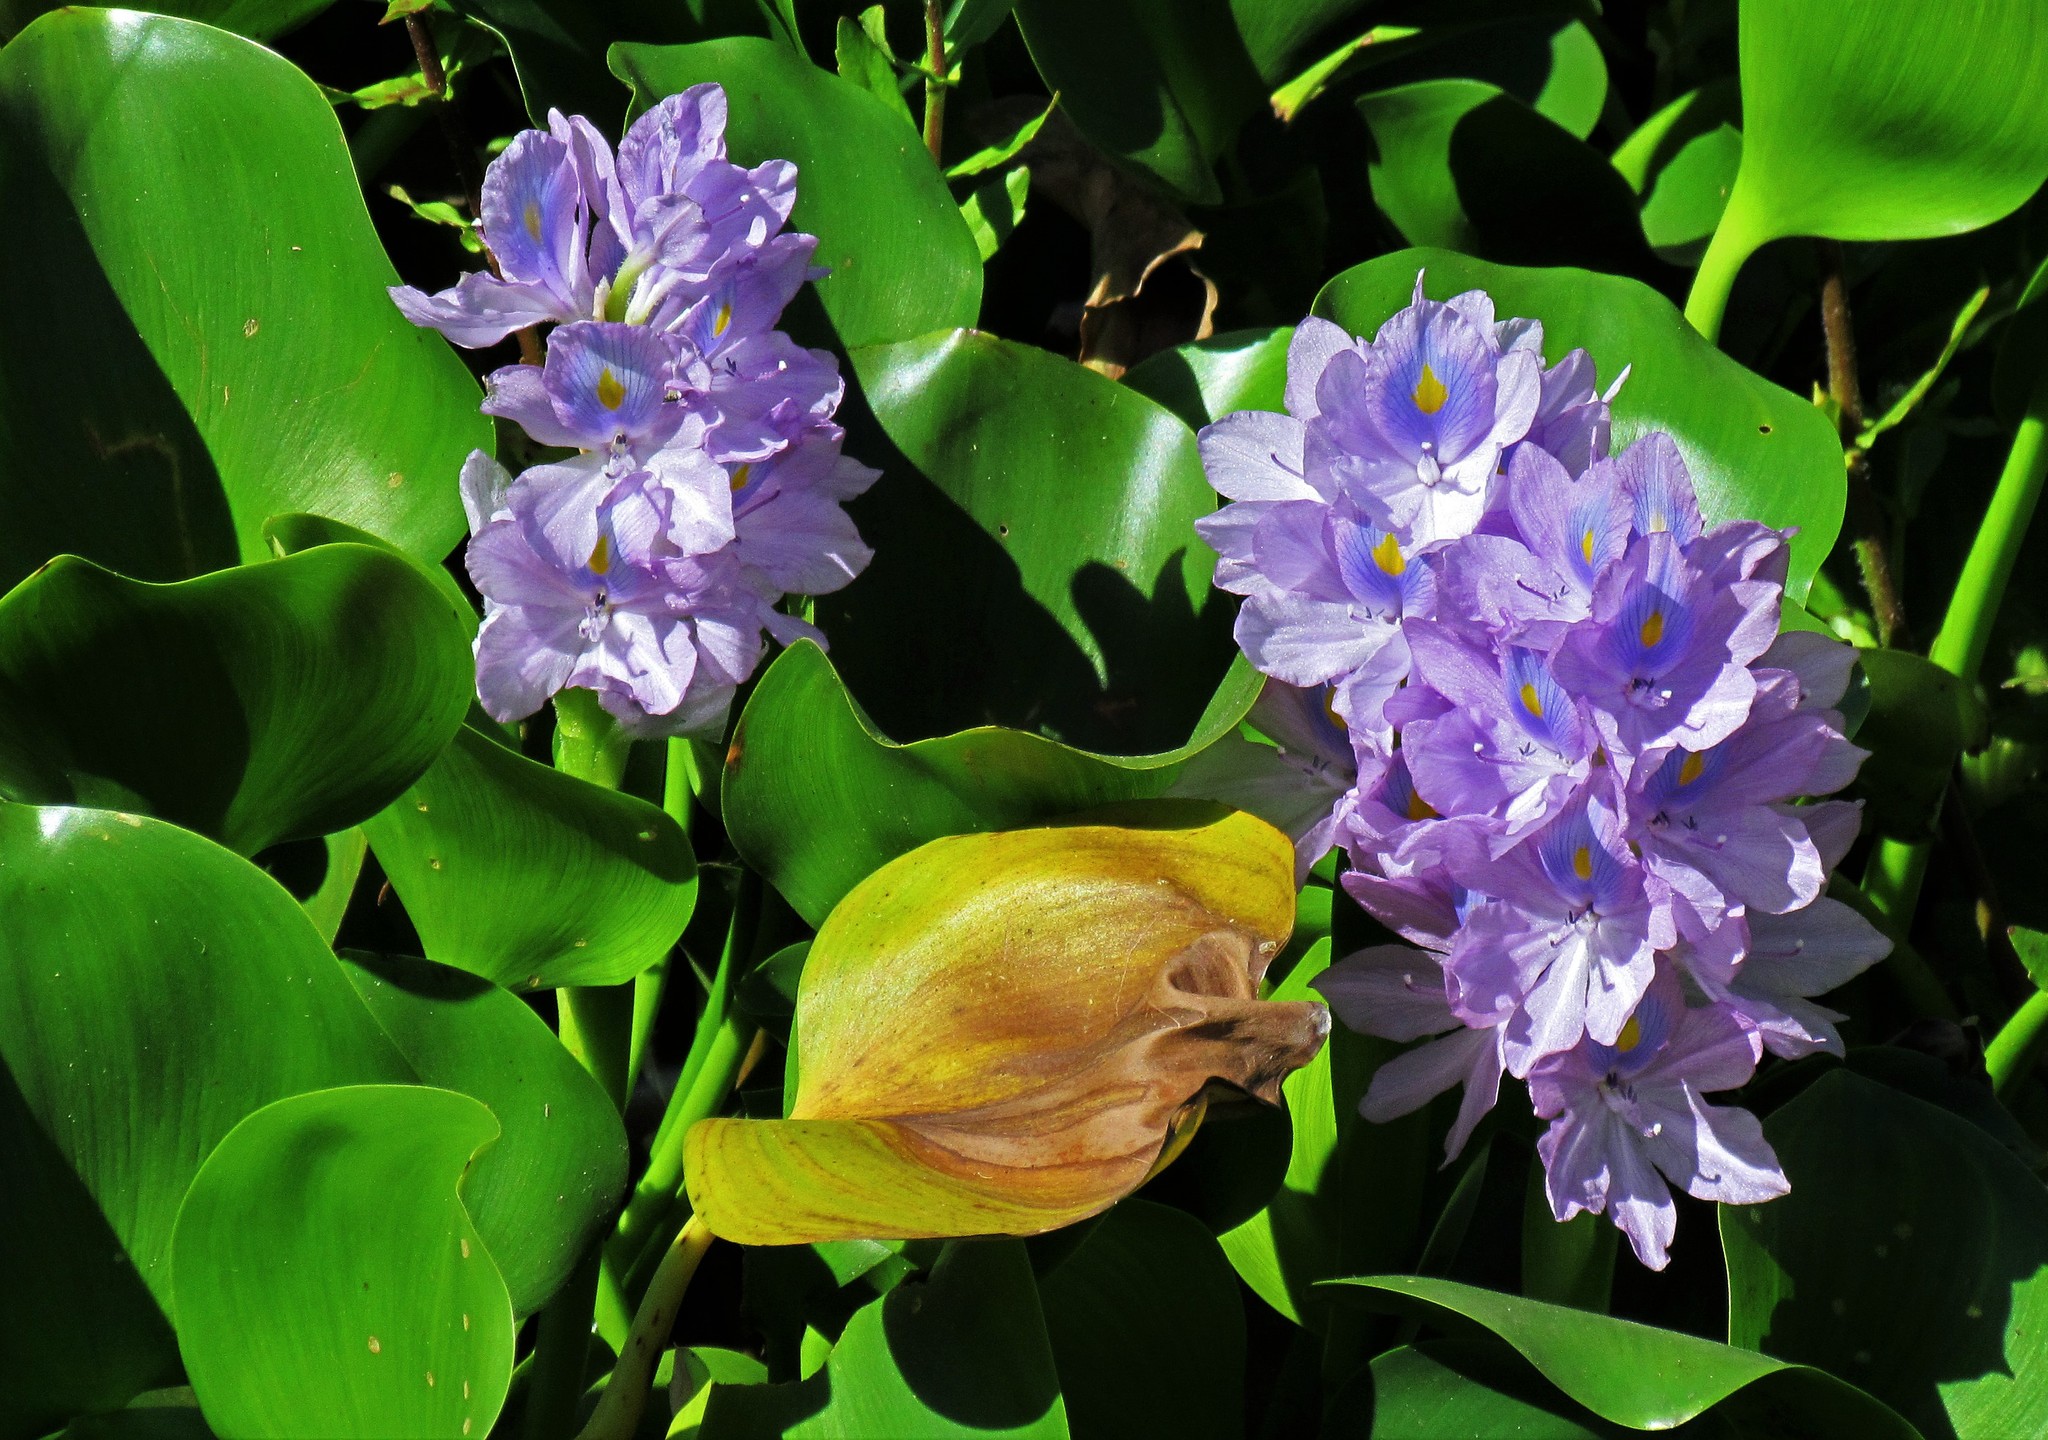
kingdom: Plantae
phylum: Tracheophyta
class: Liliopsida
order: Commelinales
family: Pontederiaceae
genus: Pontederia
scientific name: Pontederia crassipes
